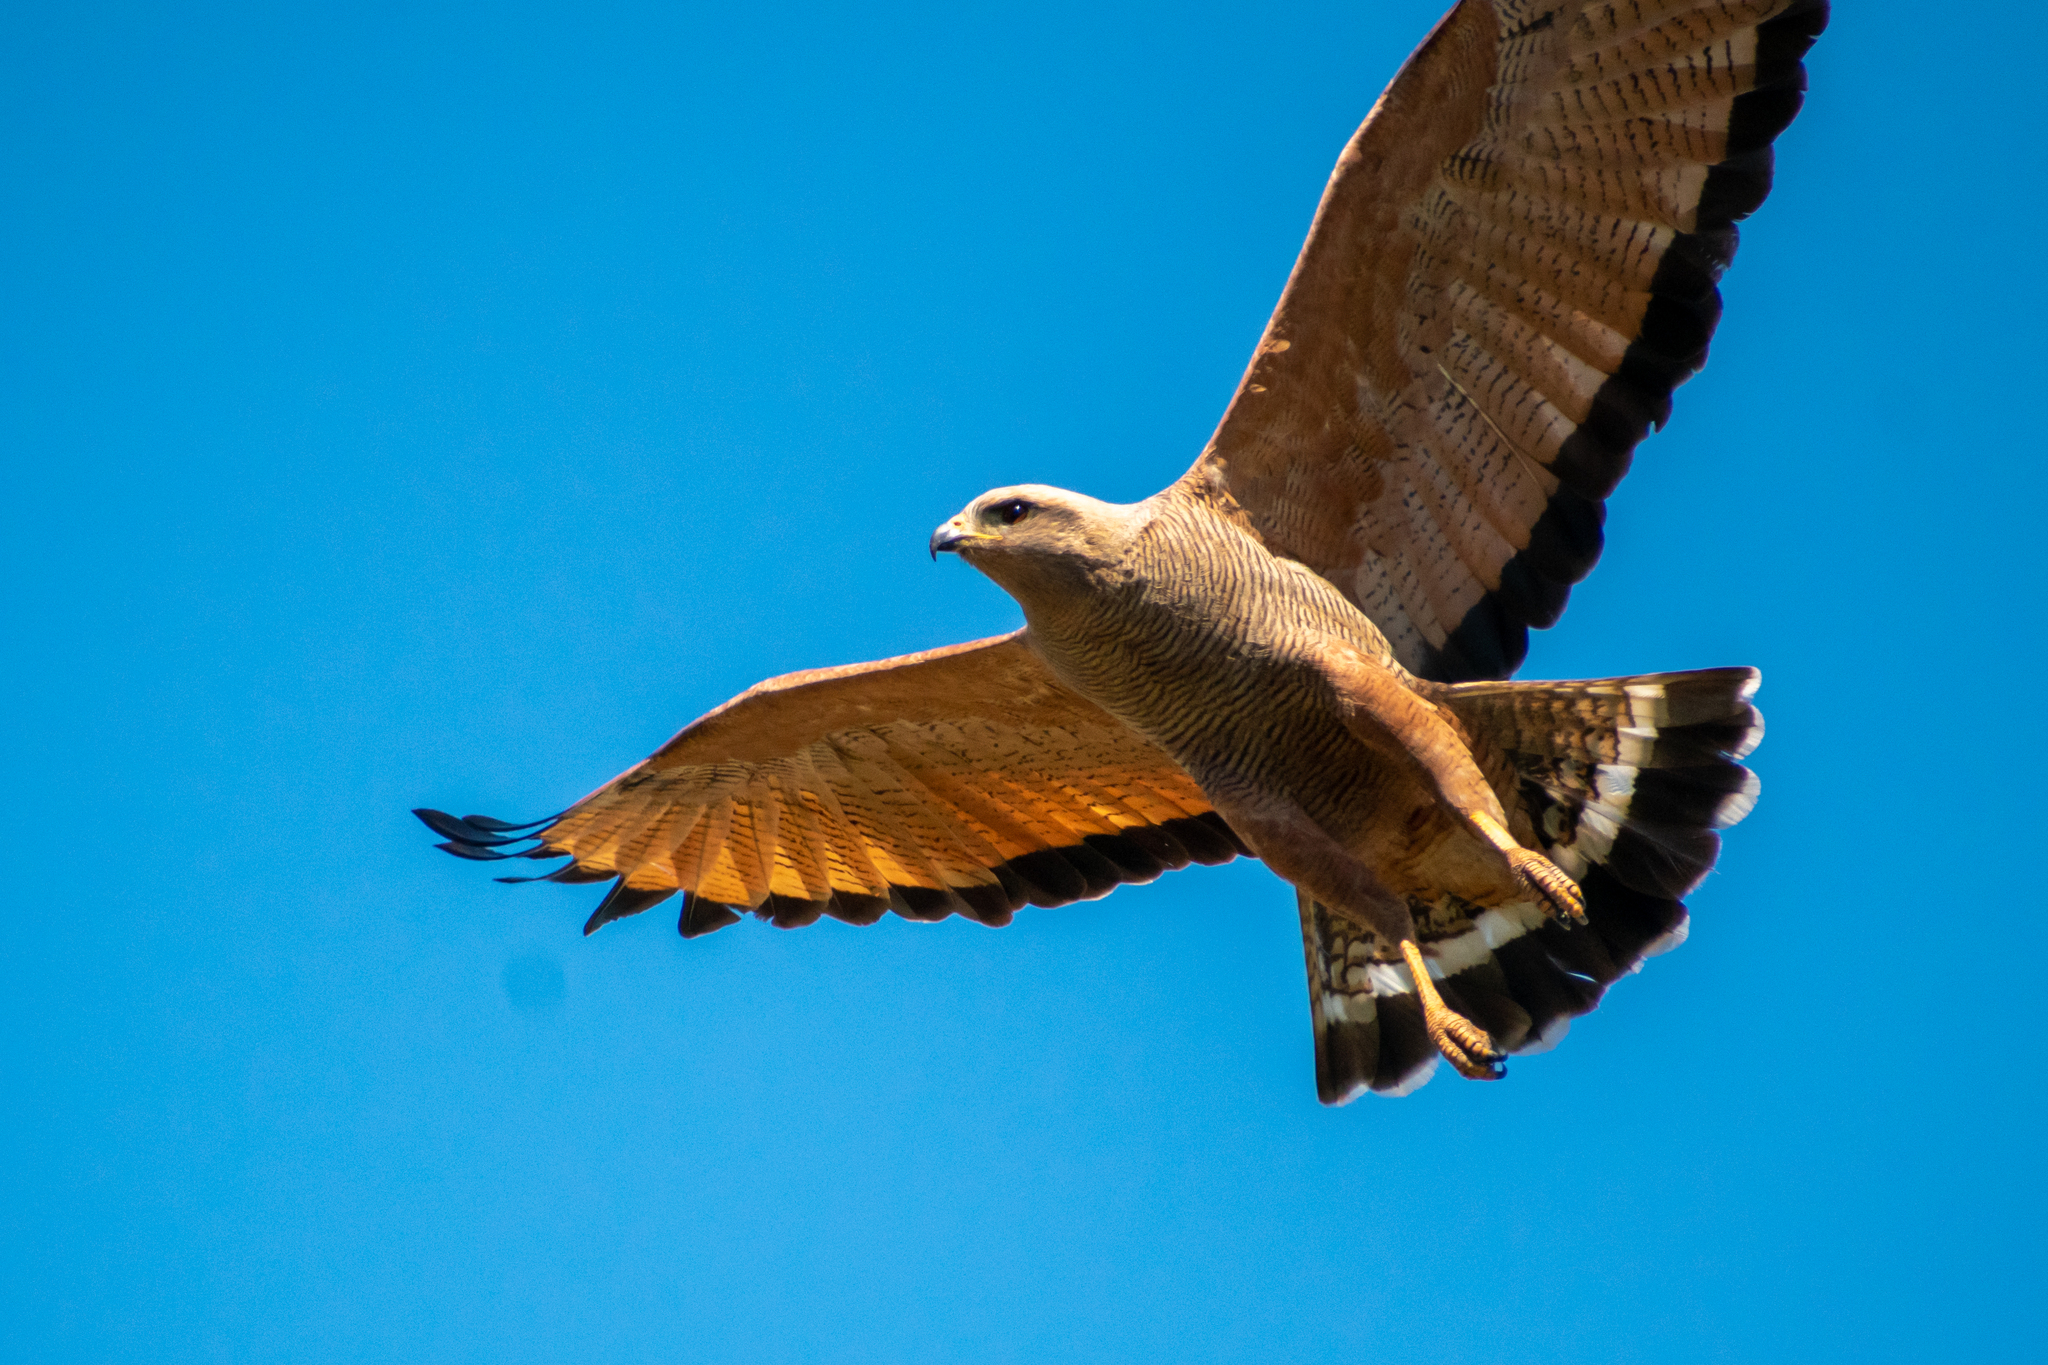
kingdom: Animalia
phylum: Chordata
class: Aves
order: Accipitriformes
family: Accipitridae
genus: Buteogallus
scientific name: Buteogallus meridionalis
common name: Savanna hawk
